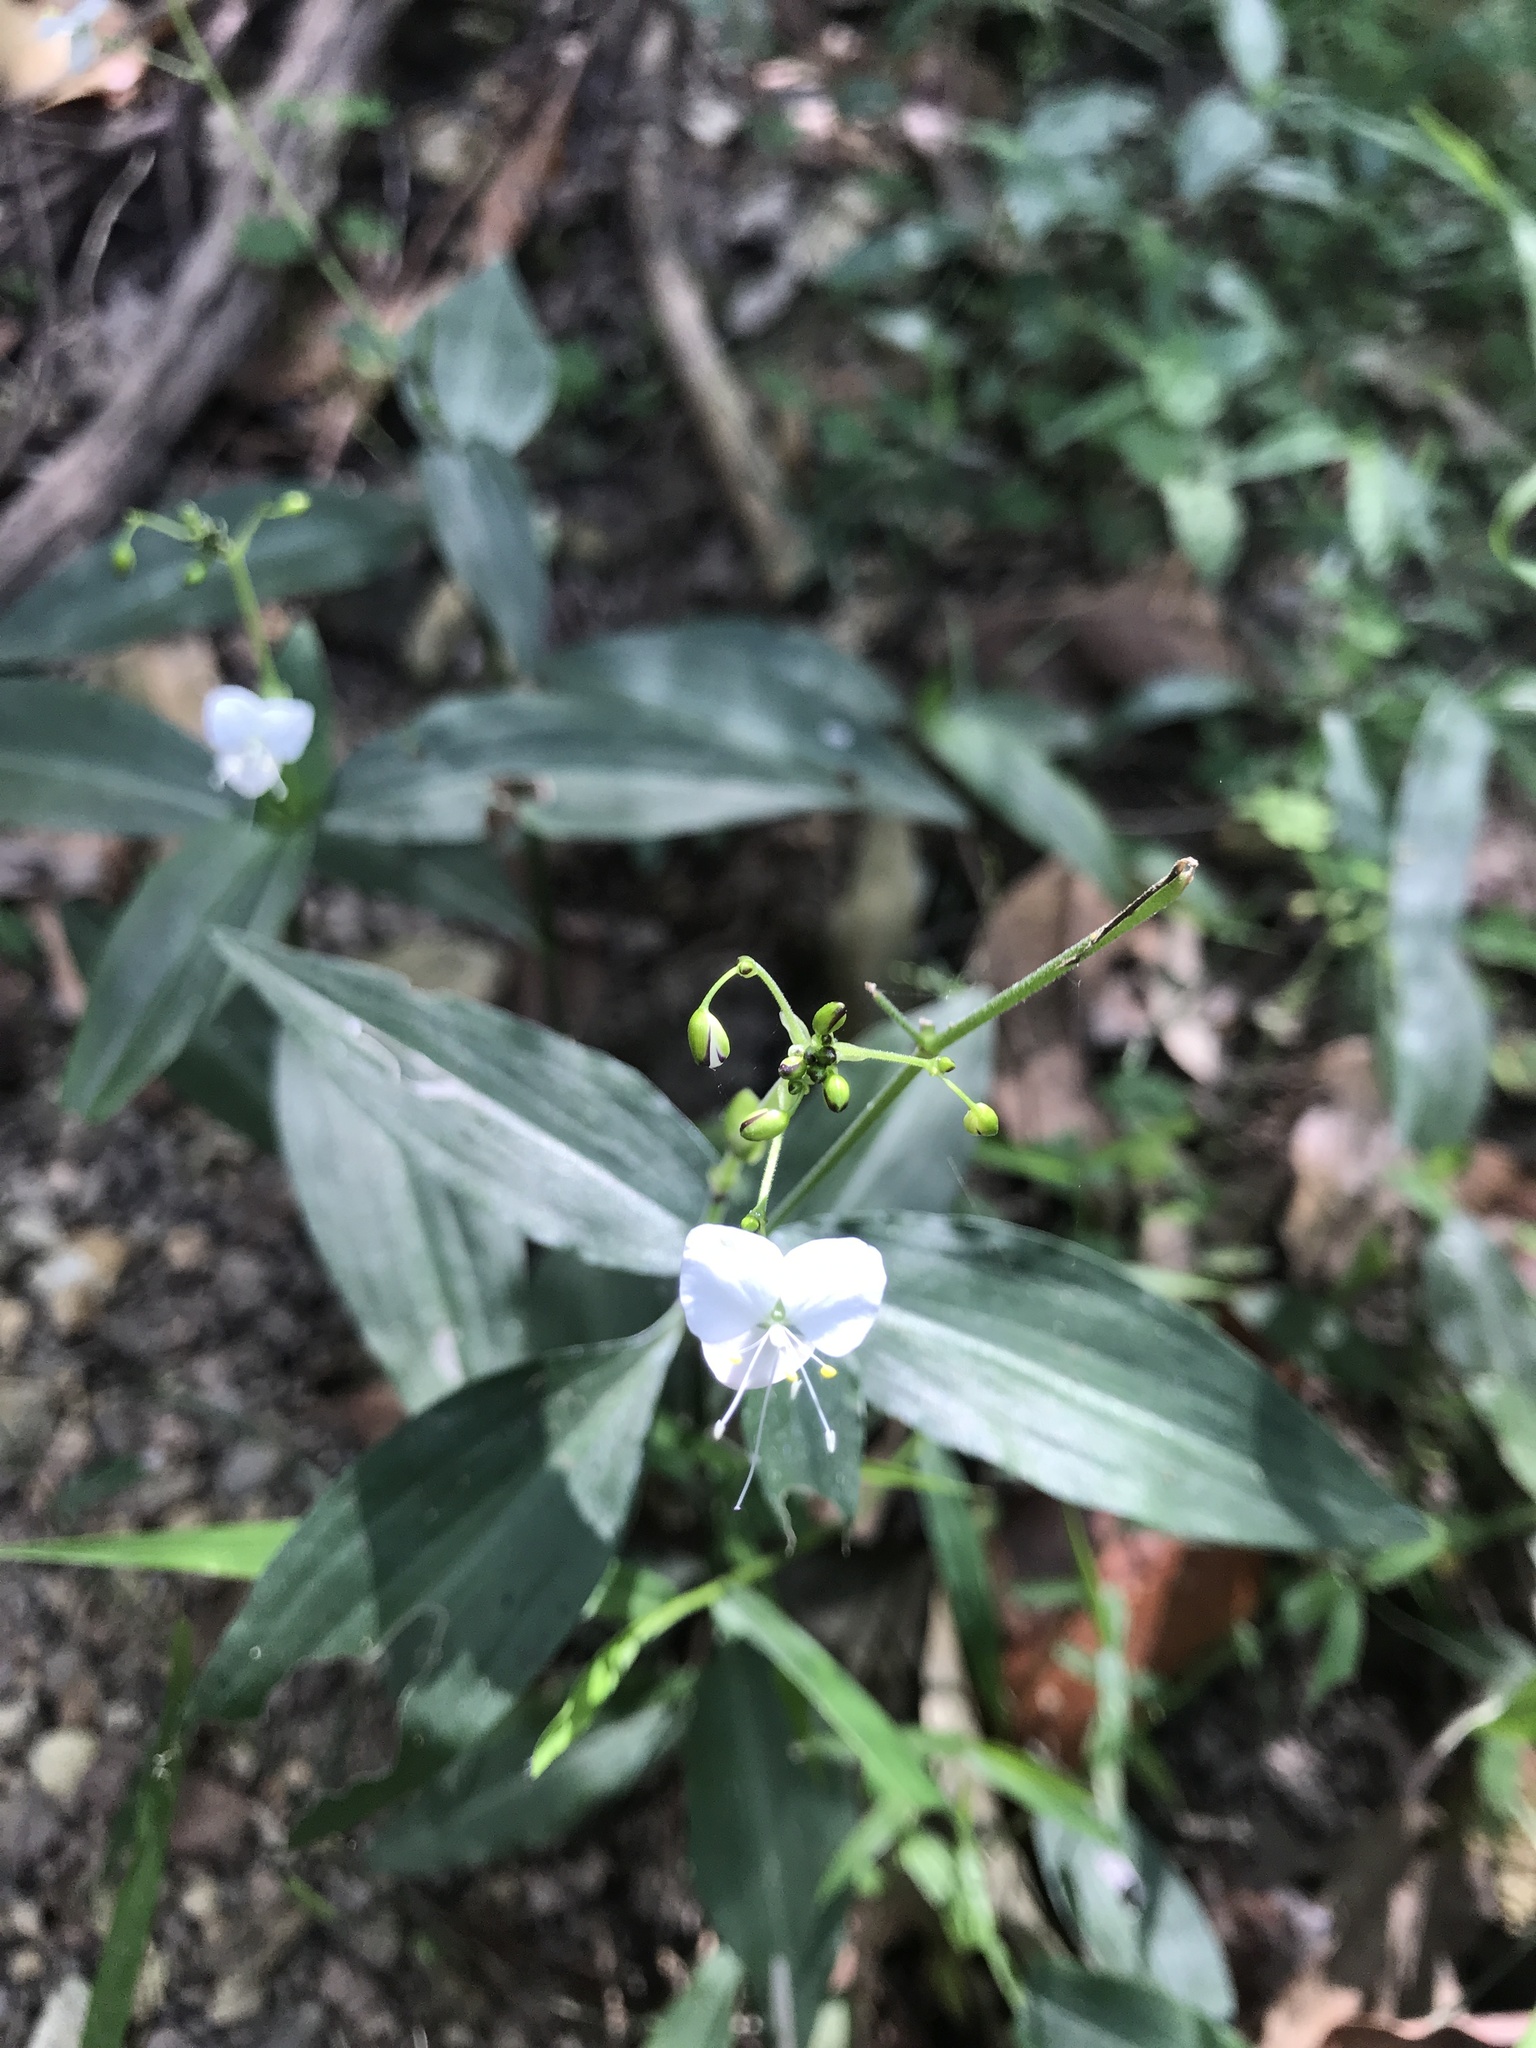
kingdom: Plantae
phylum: Tracheophyta
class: Liliopsida
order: Commelinales
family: Commelinaceae
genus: Aneilema
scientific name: Aneilema acuminatum
